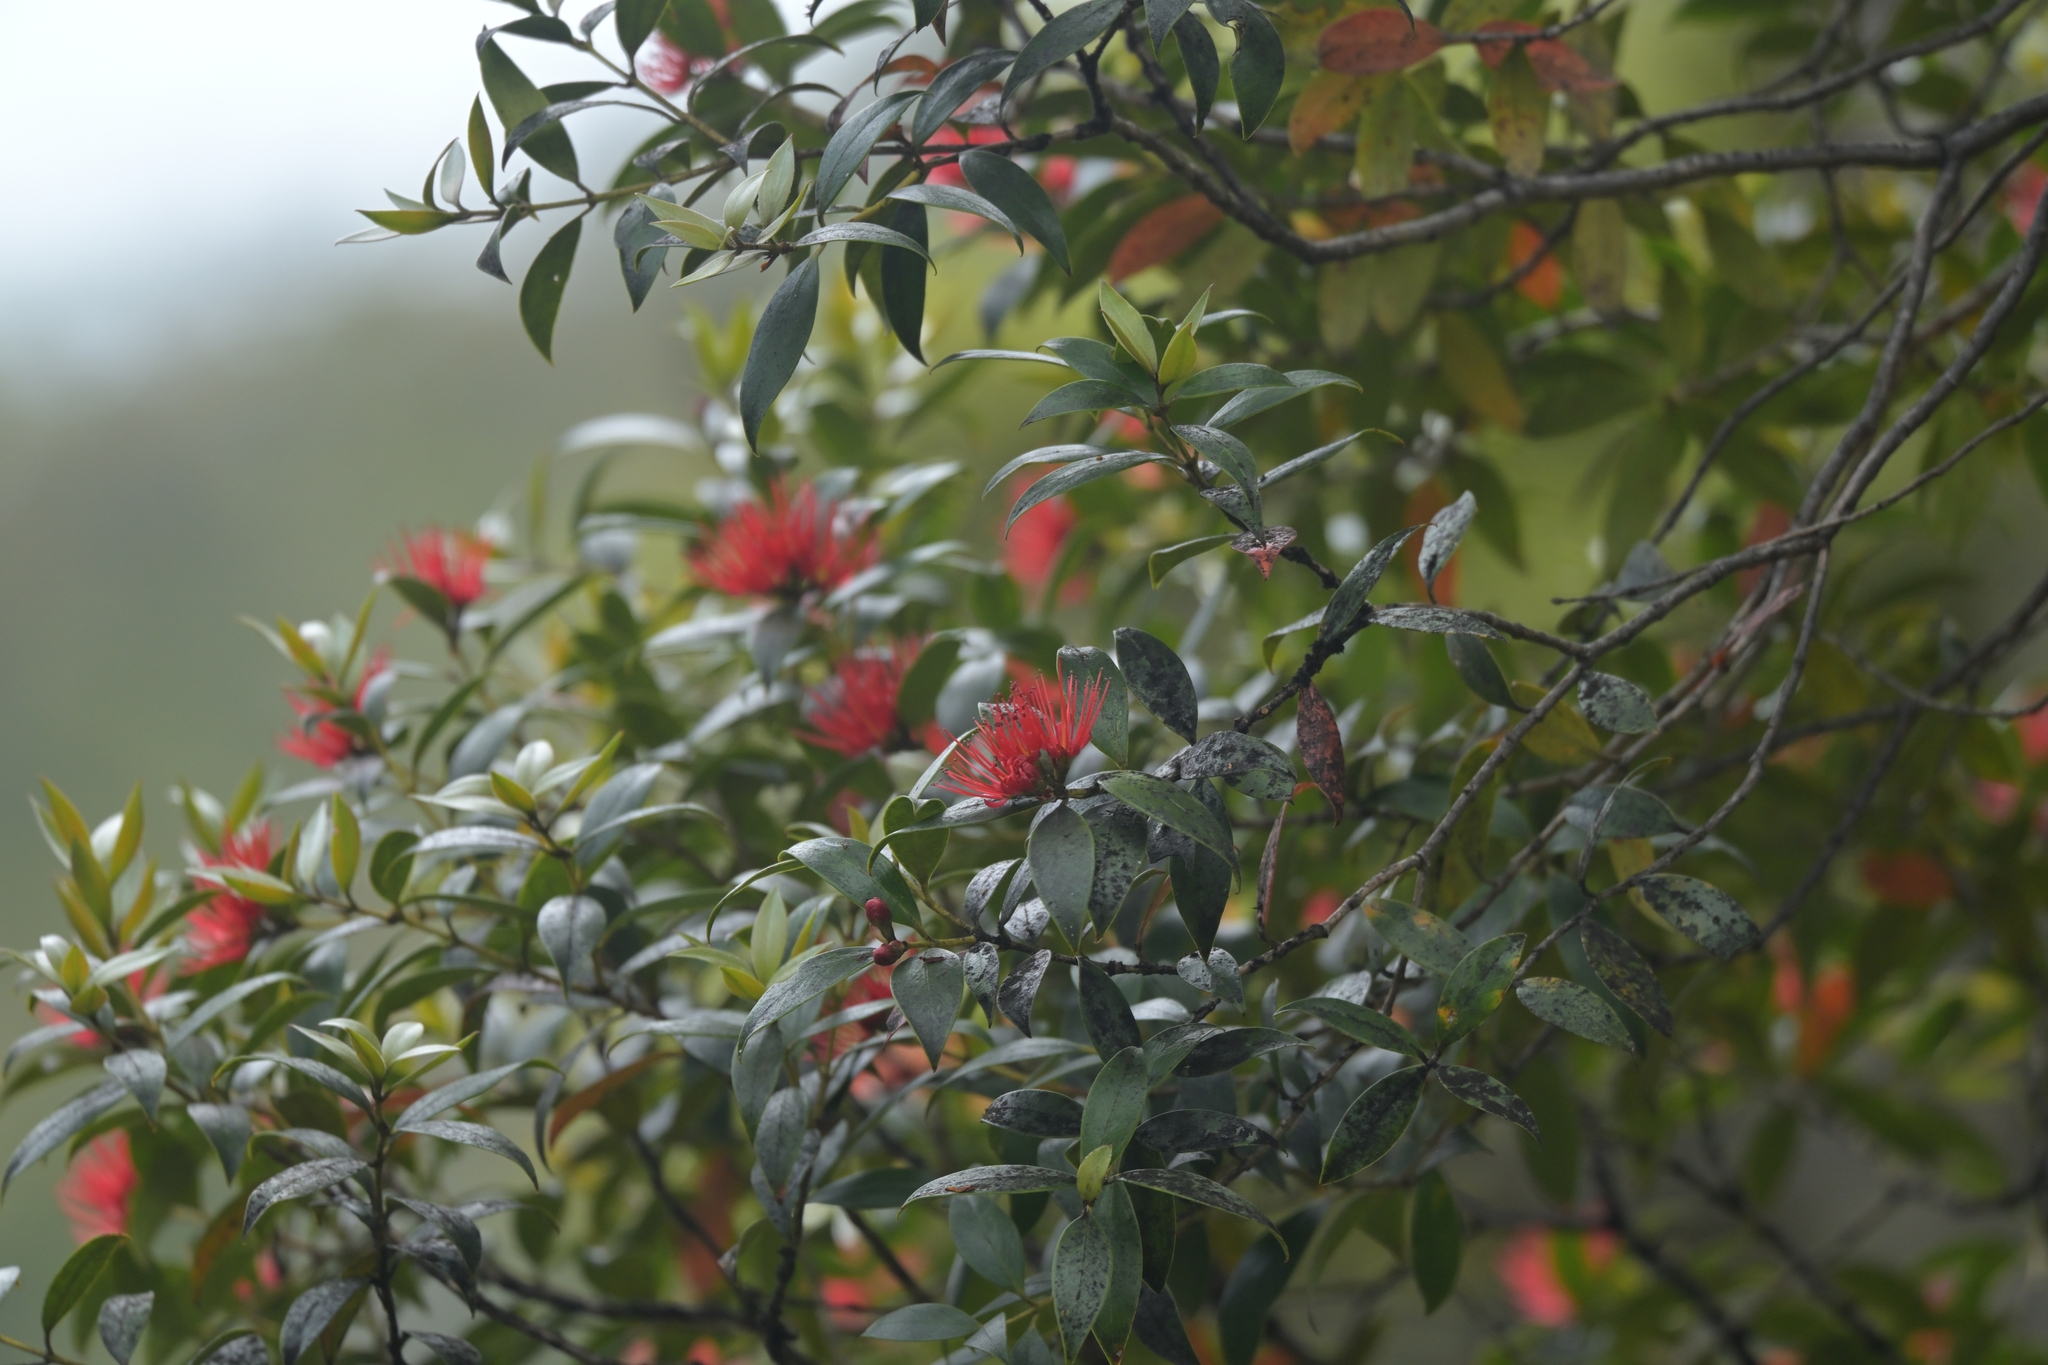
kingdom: Plantae
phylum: Tracheophyta
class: Magnoliopsida
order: Myrtales
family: Myrtaceae
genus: Metrosideros
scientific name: Metrosideros umbellata
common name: Southern rata
